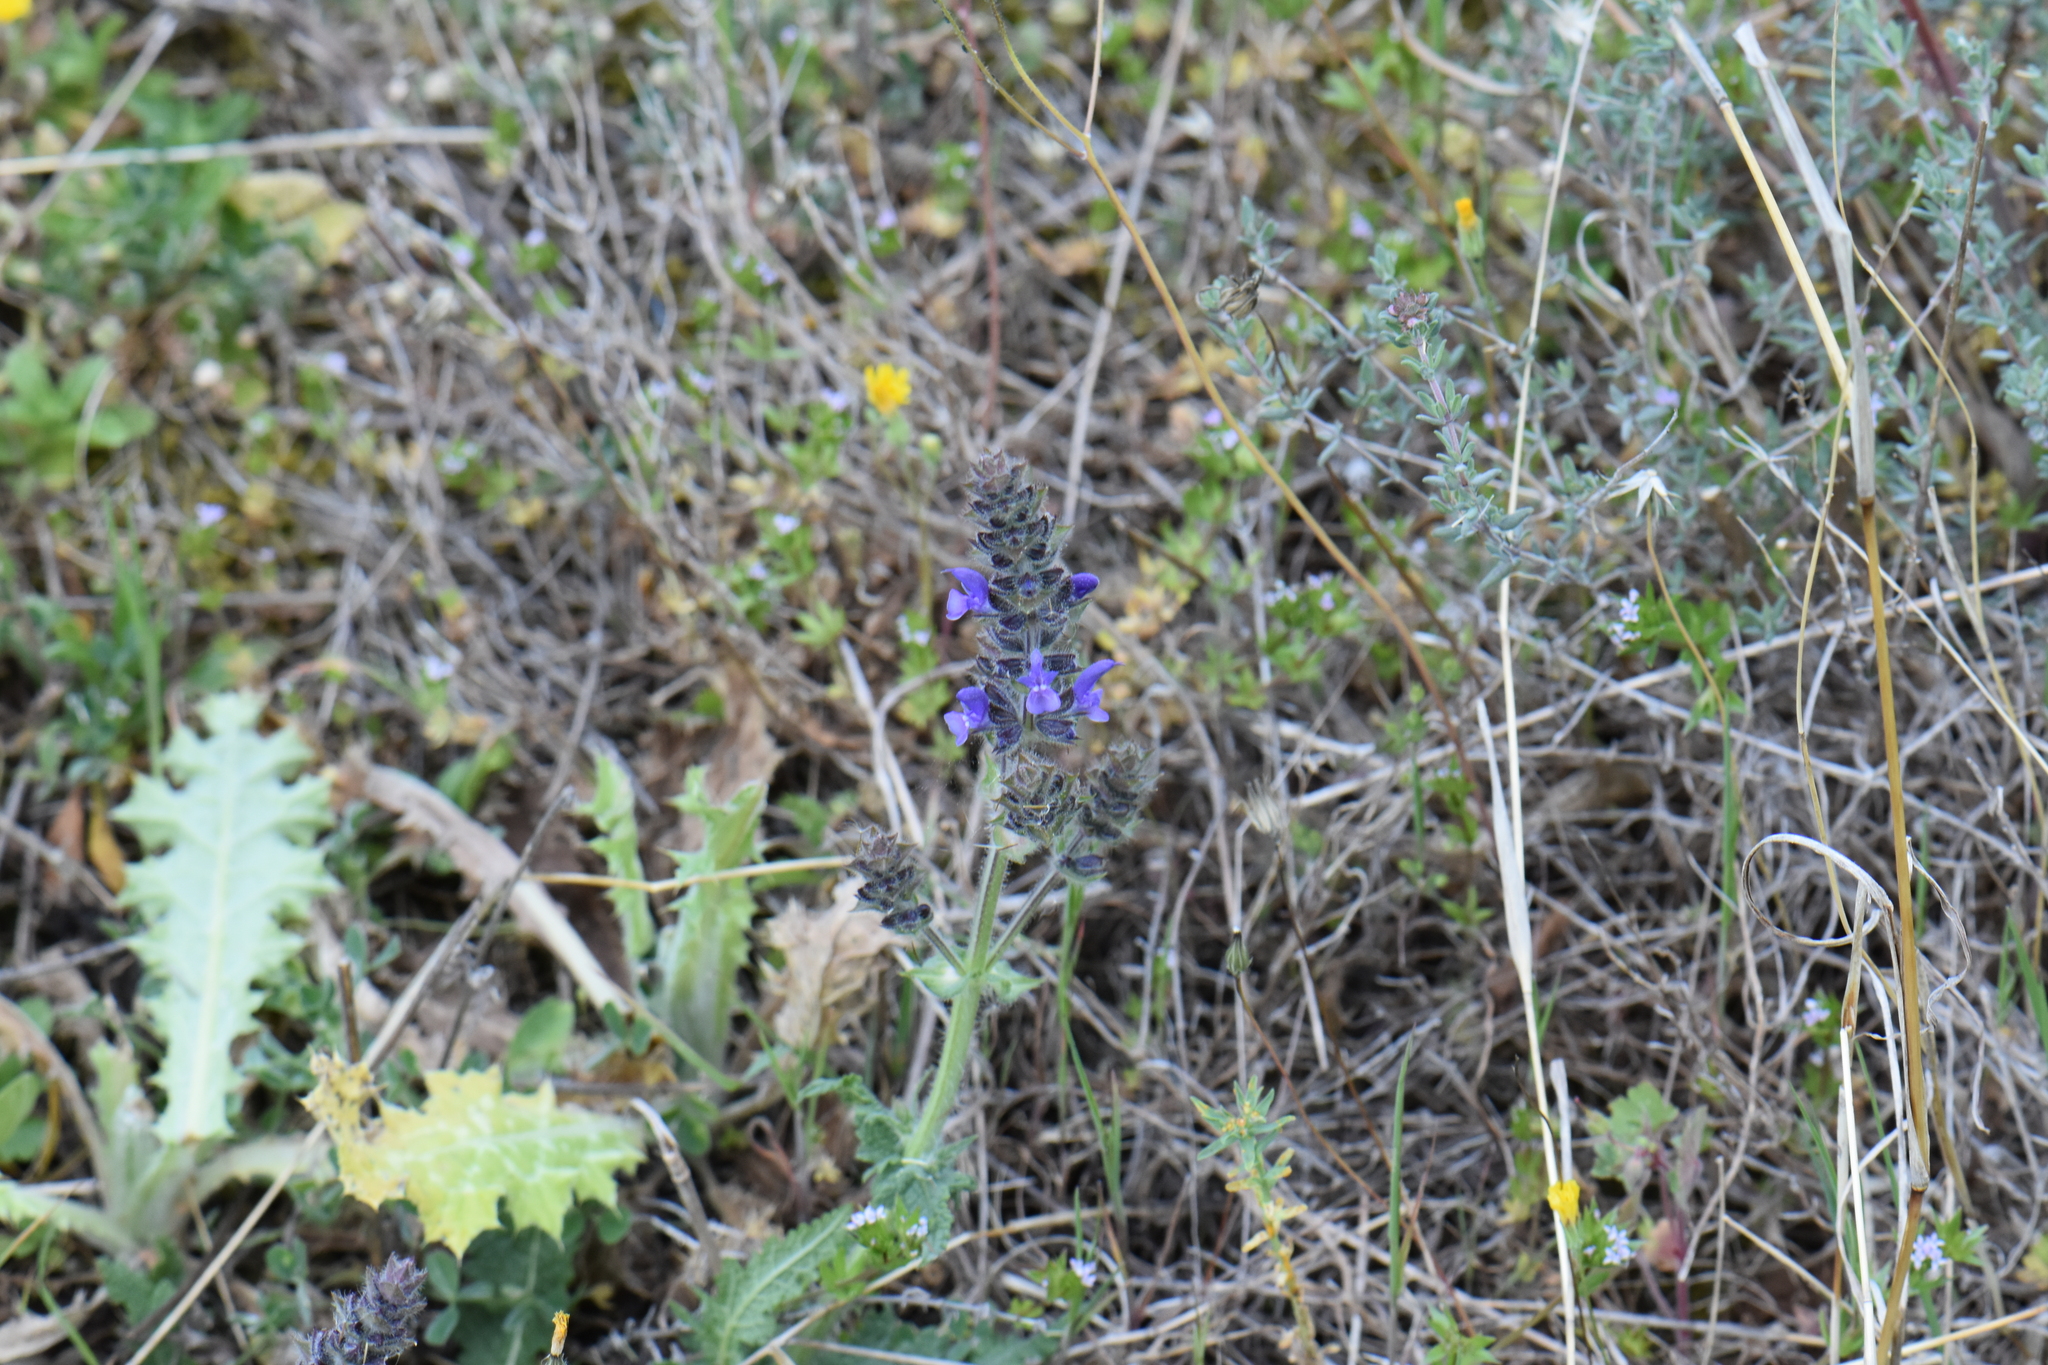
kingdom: Plantae
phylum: Tracheophyta
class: Magnoliopsida
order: Lamiales
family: Lamiaceae
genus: Salvia
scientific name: Salvia verbenaca
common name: Wild clary
